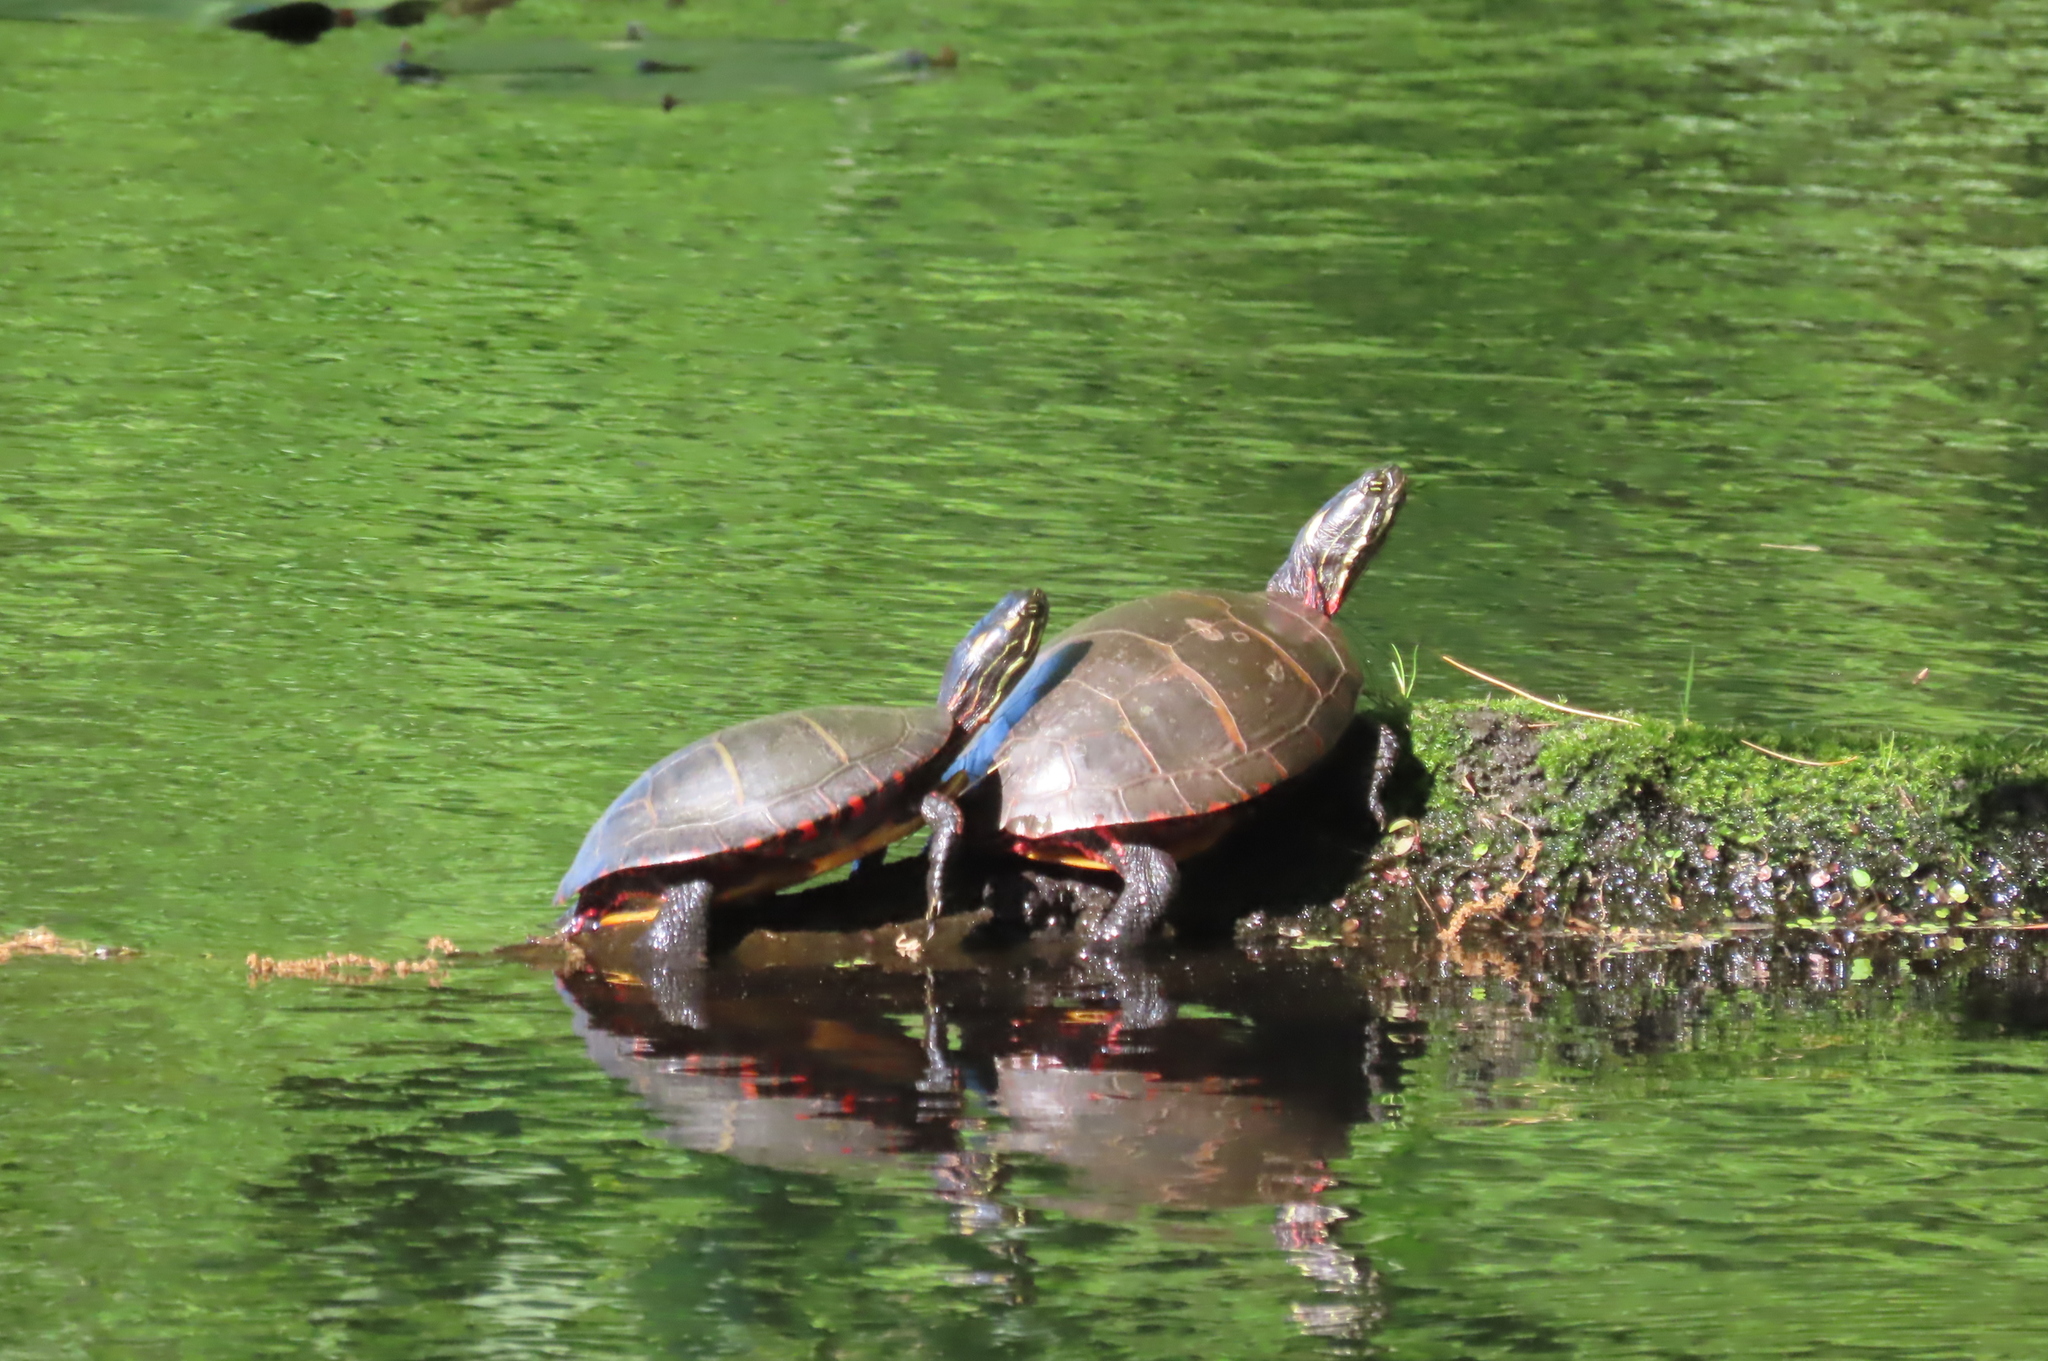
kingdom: Animalia
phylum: Chordata
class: Testudines
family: Emydidae
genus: Chrysemys
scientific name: Chrysemys picta
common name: Painted turtle
